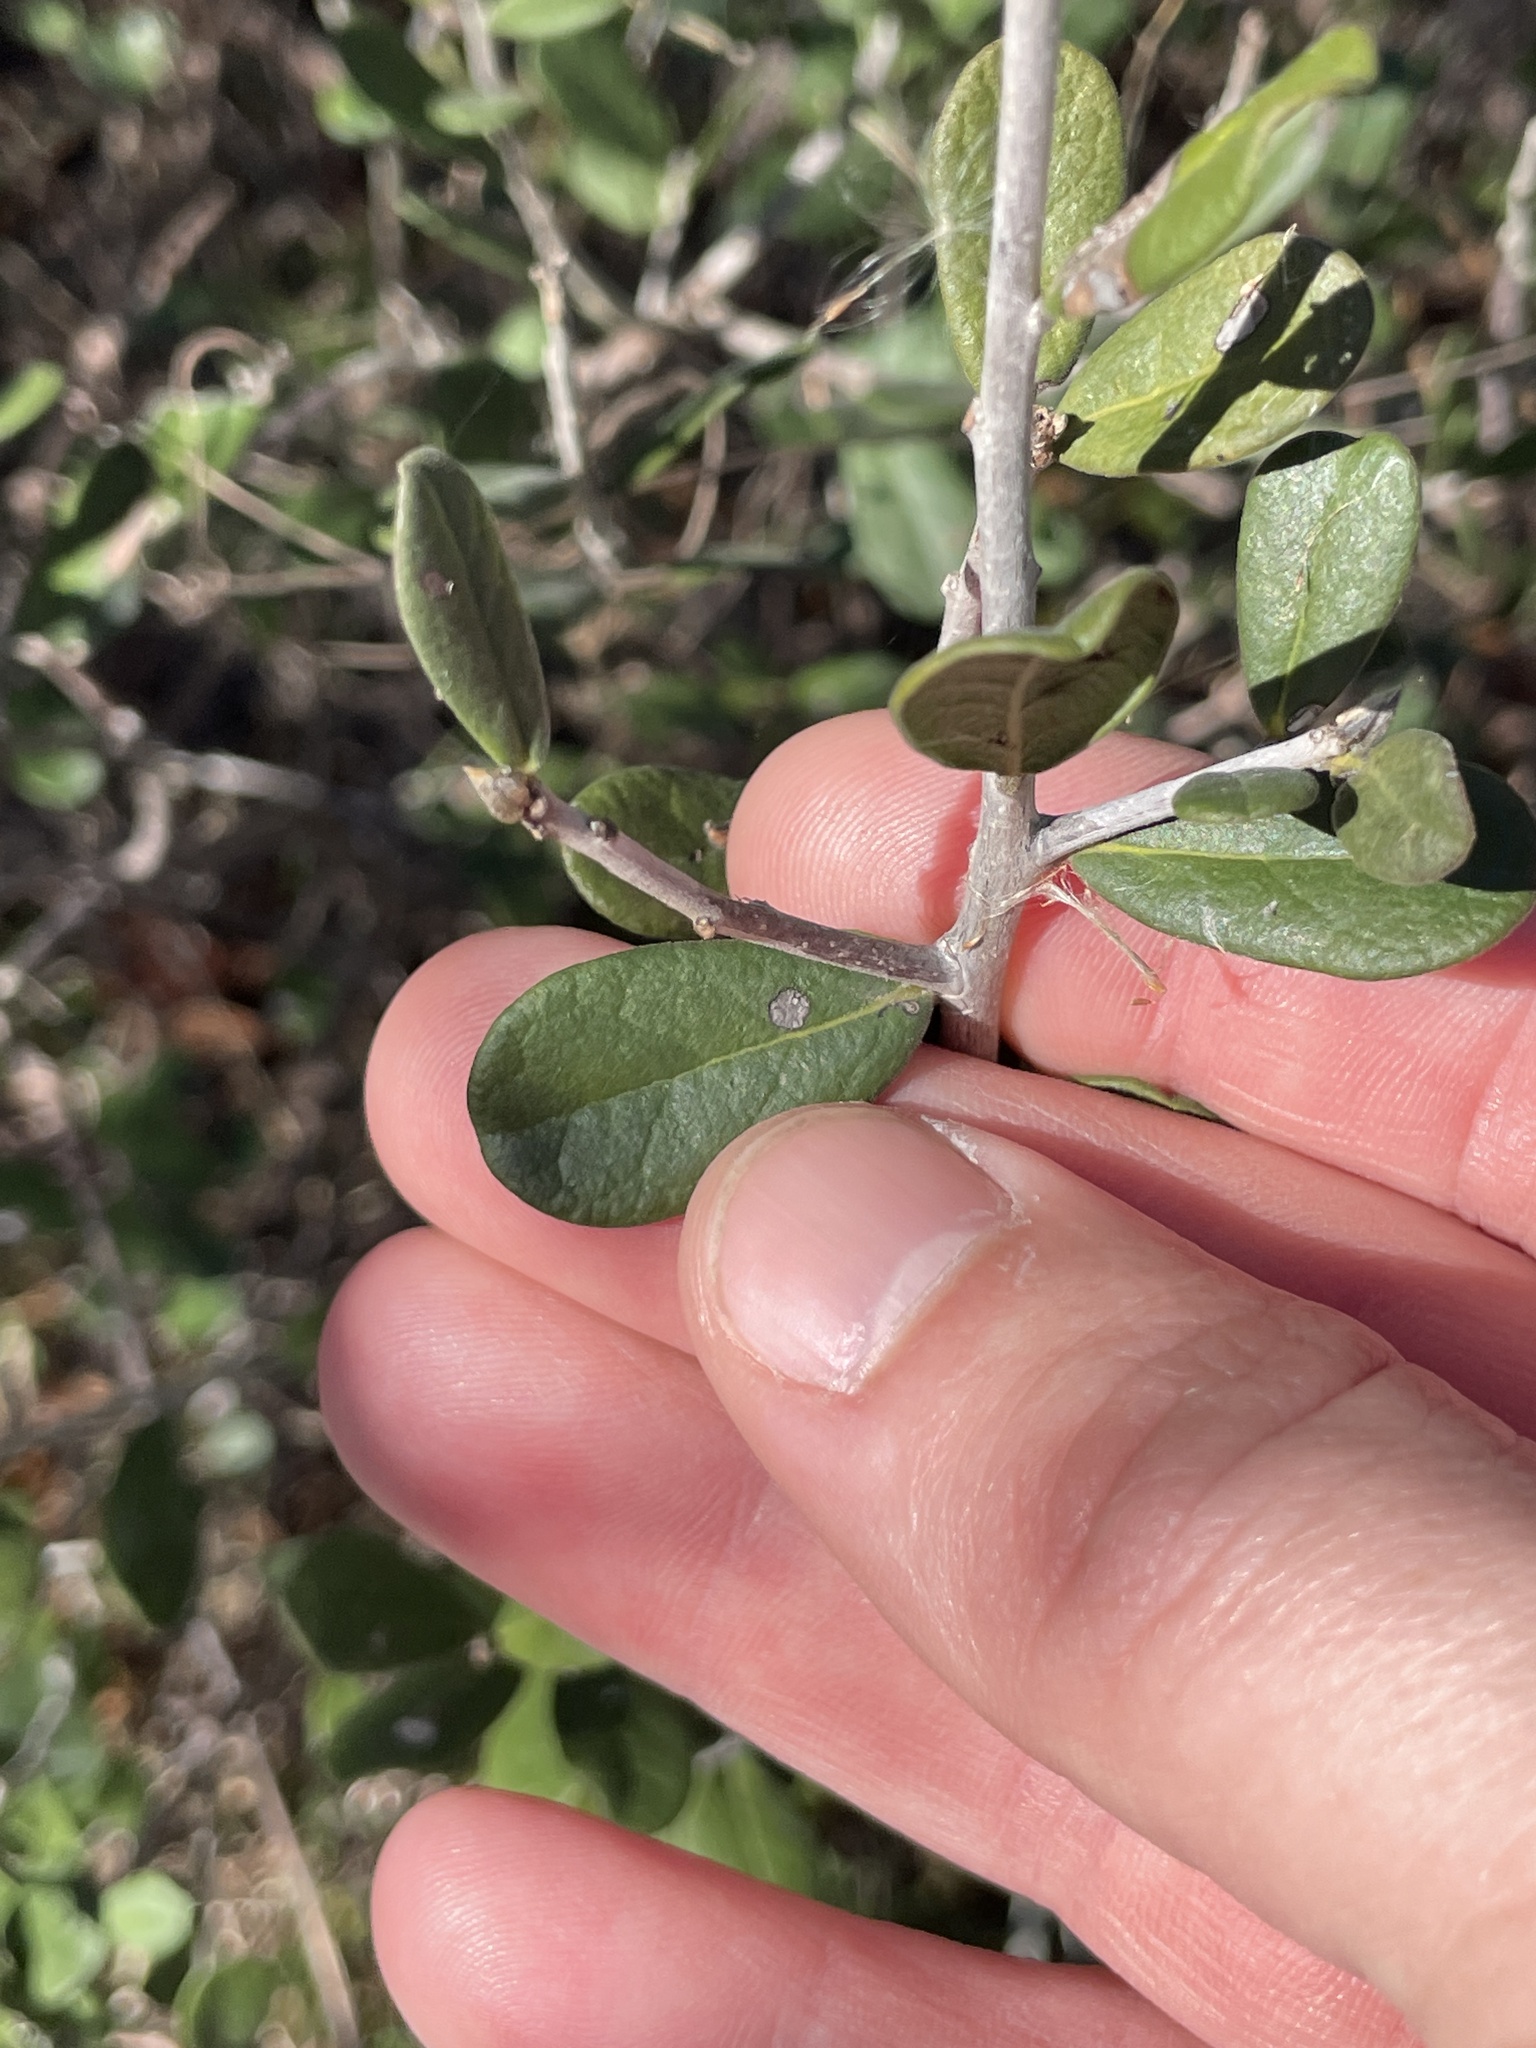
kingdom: Plantae
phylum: Tracheophyta
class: Magnoliopsida
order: Ericales
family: Ebenaceae
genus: Diospyros
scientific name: Diospyros texana
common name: Texas persimmon
